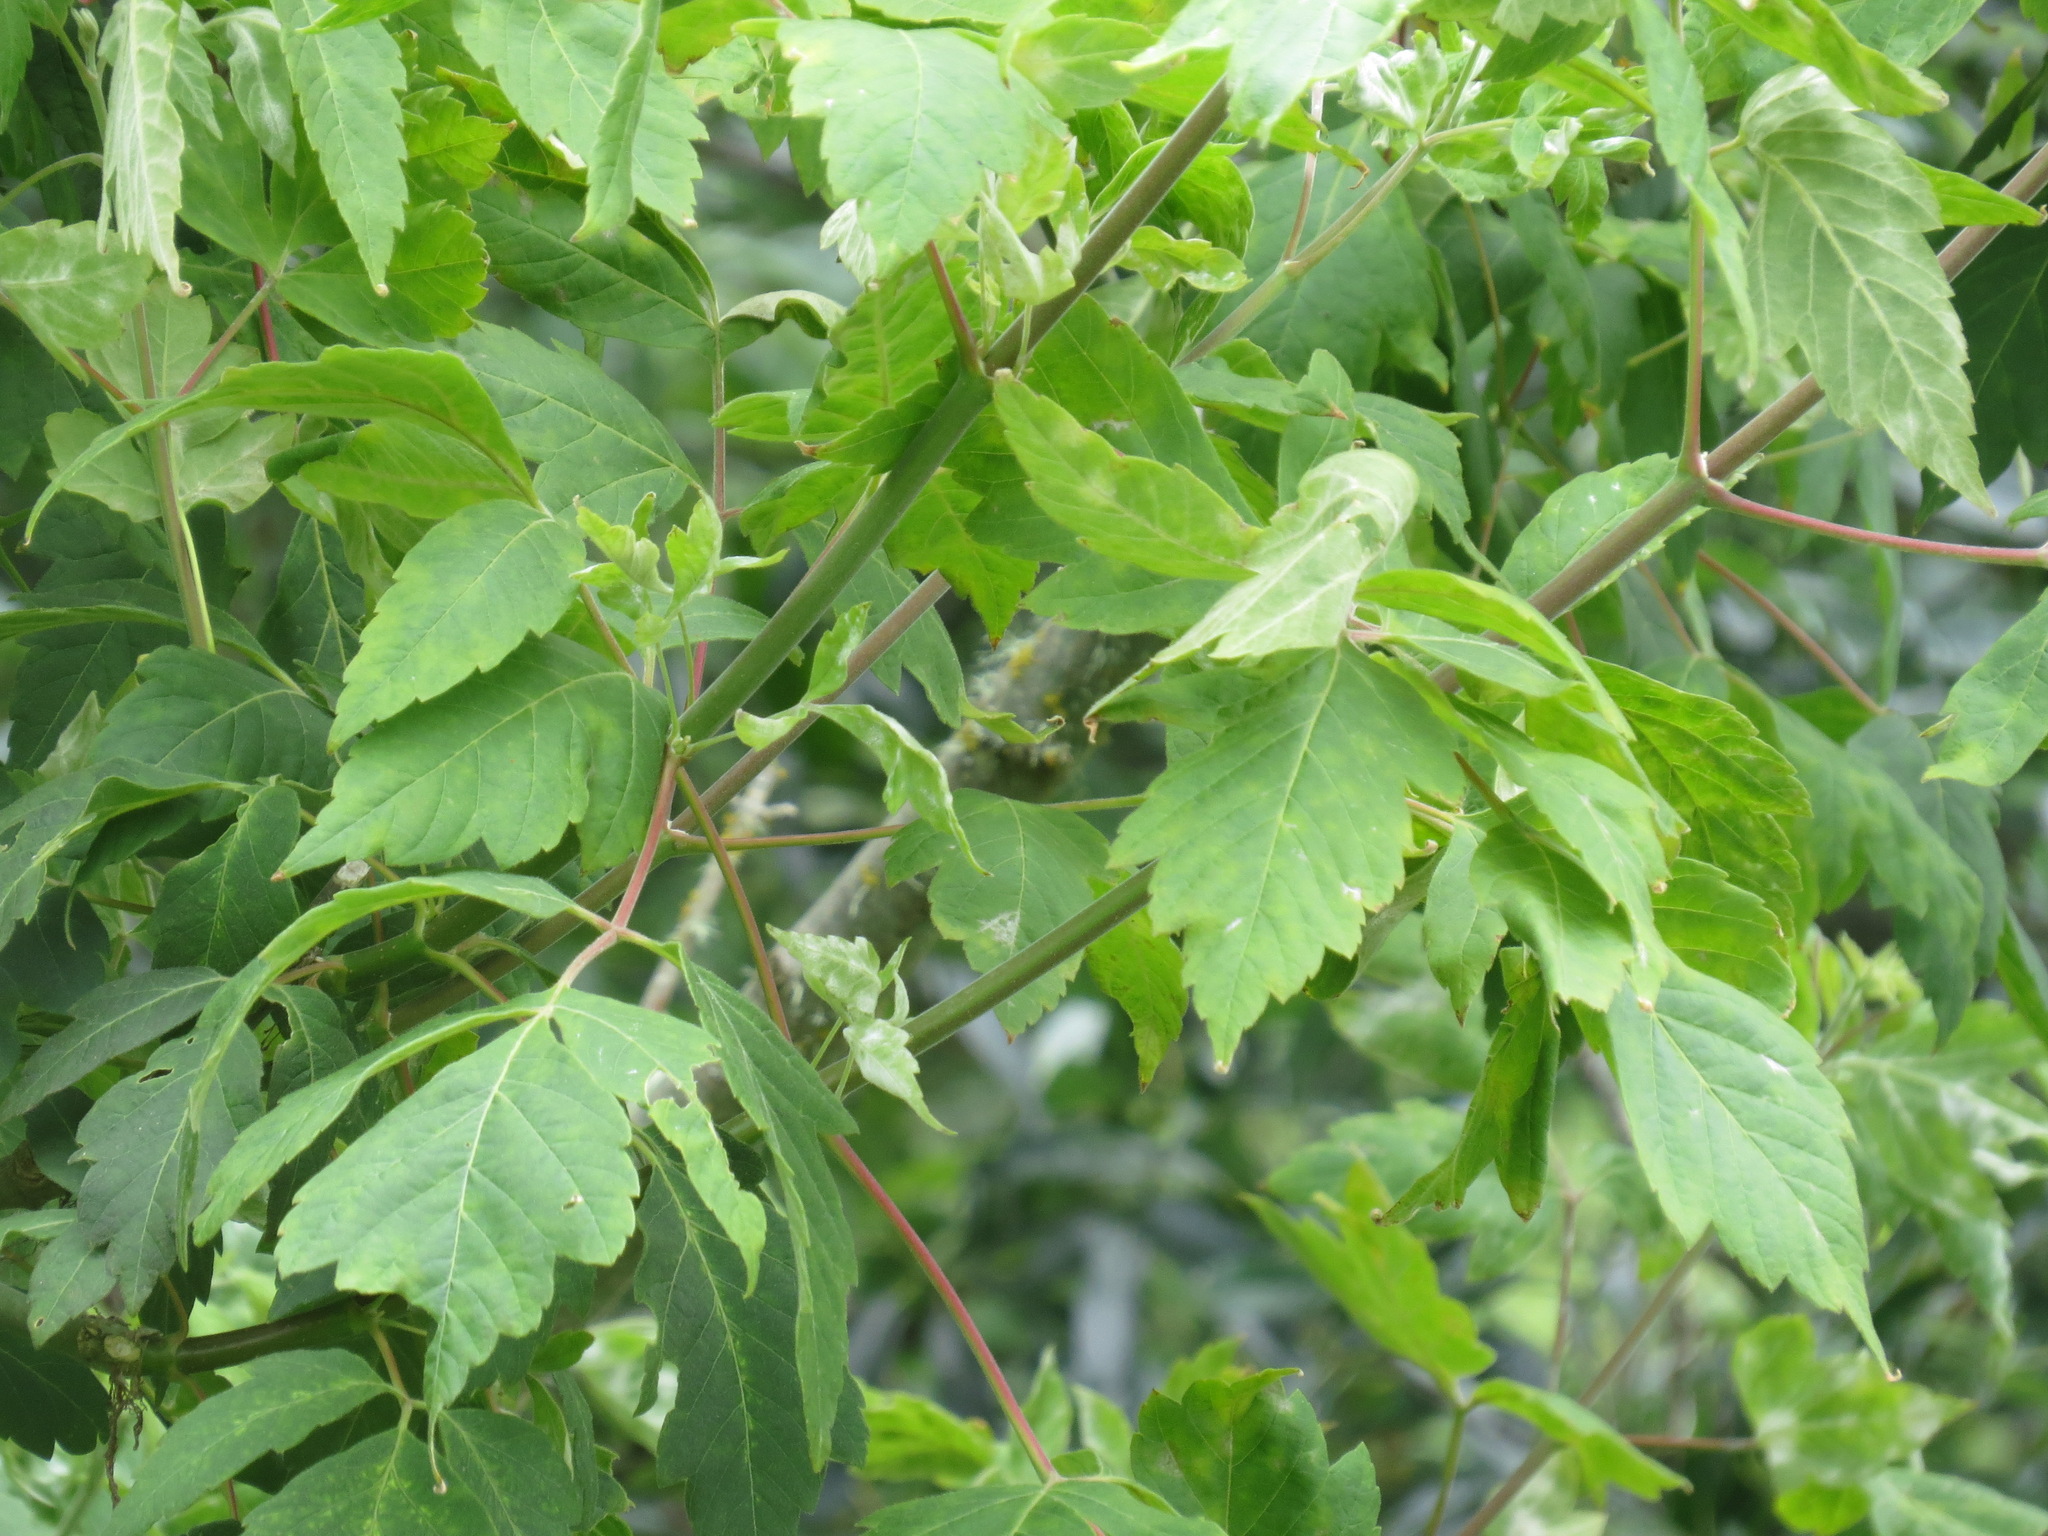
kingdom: Plantae
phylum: Tracheophyta
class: Magnoliopsida
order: Sapindales
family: Sapindaceae
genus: Acer
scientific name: Acer negundo
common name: Ashleaf maple
